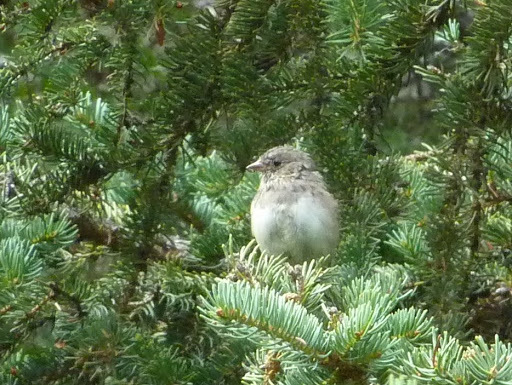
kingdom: Animalia
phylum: Chordata
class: Aves
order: Passeriformes
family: Passerellidae
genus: Junco
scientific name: Junco hyemalis
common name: Dark-eyed junco
